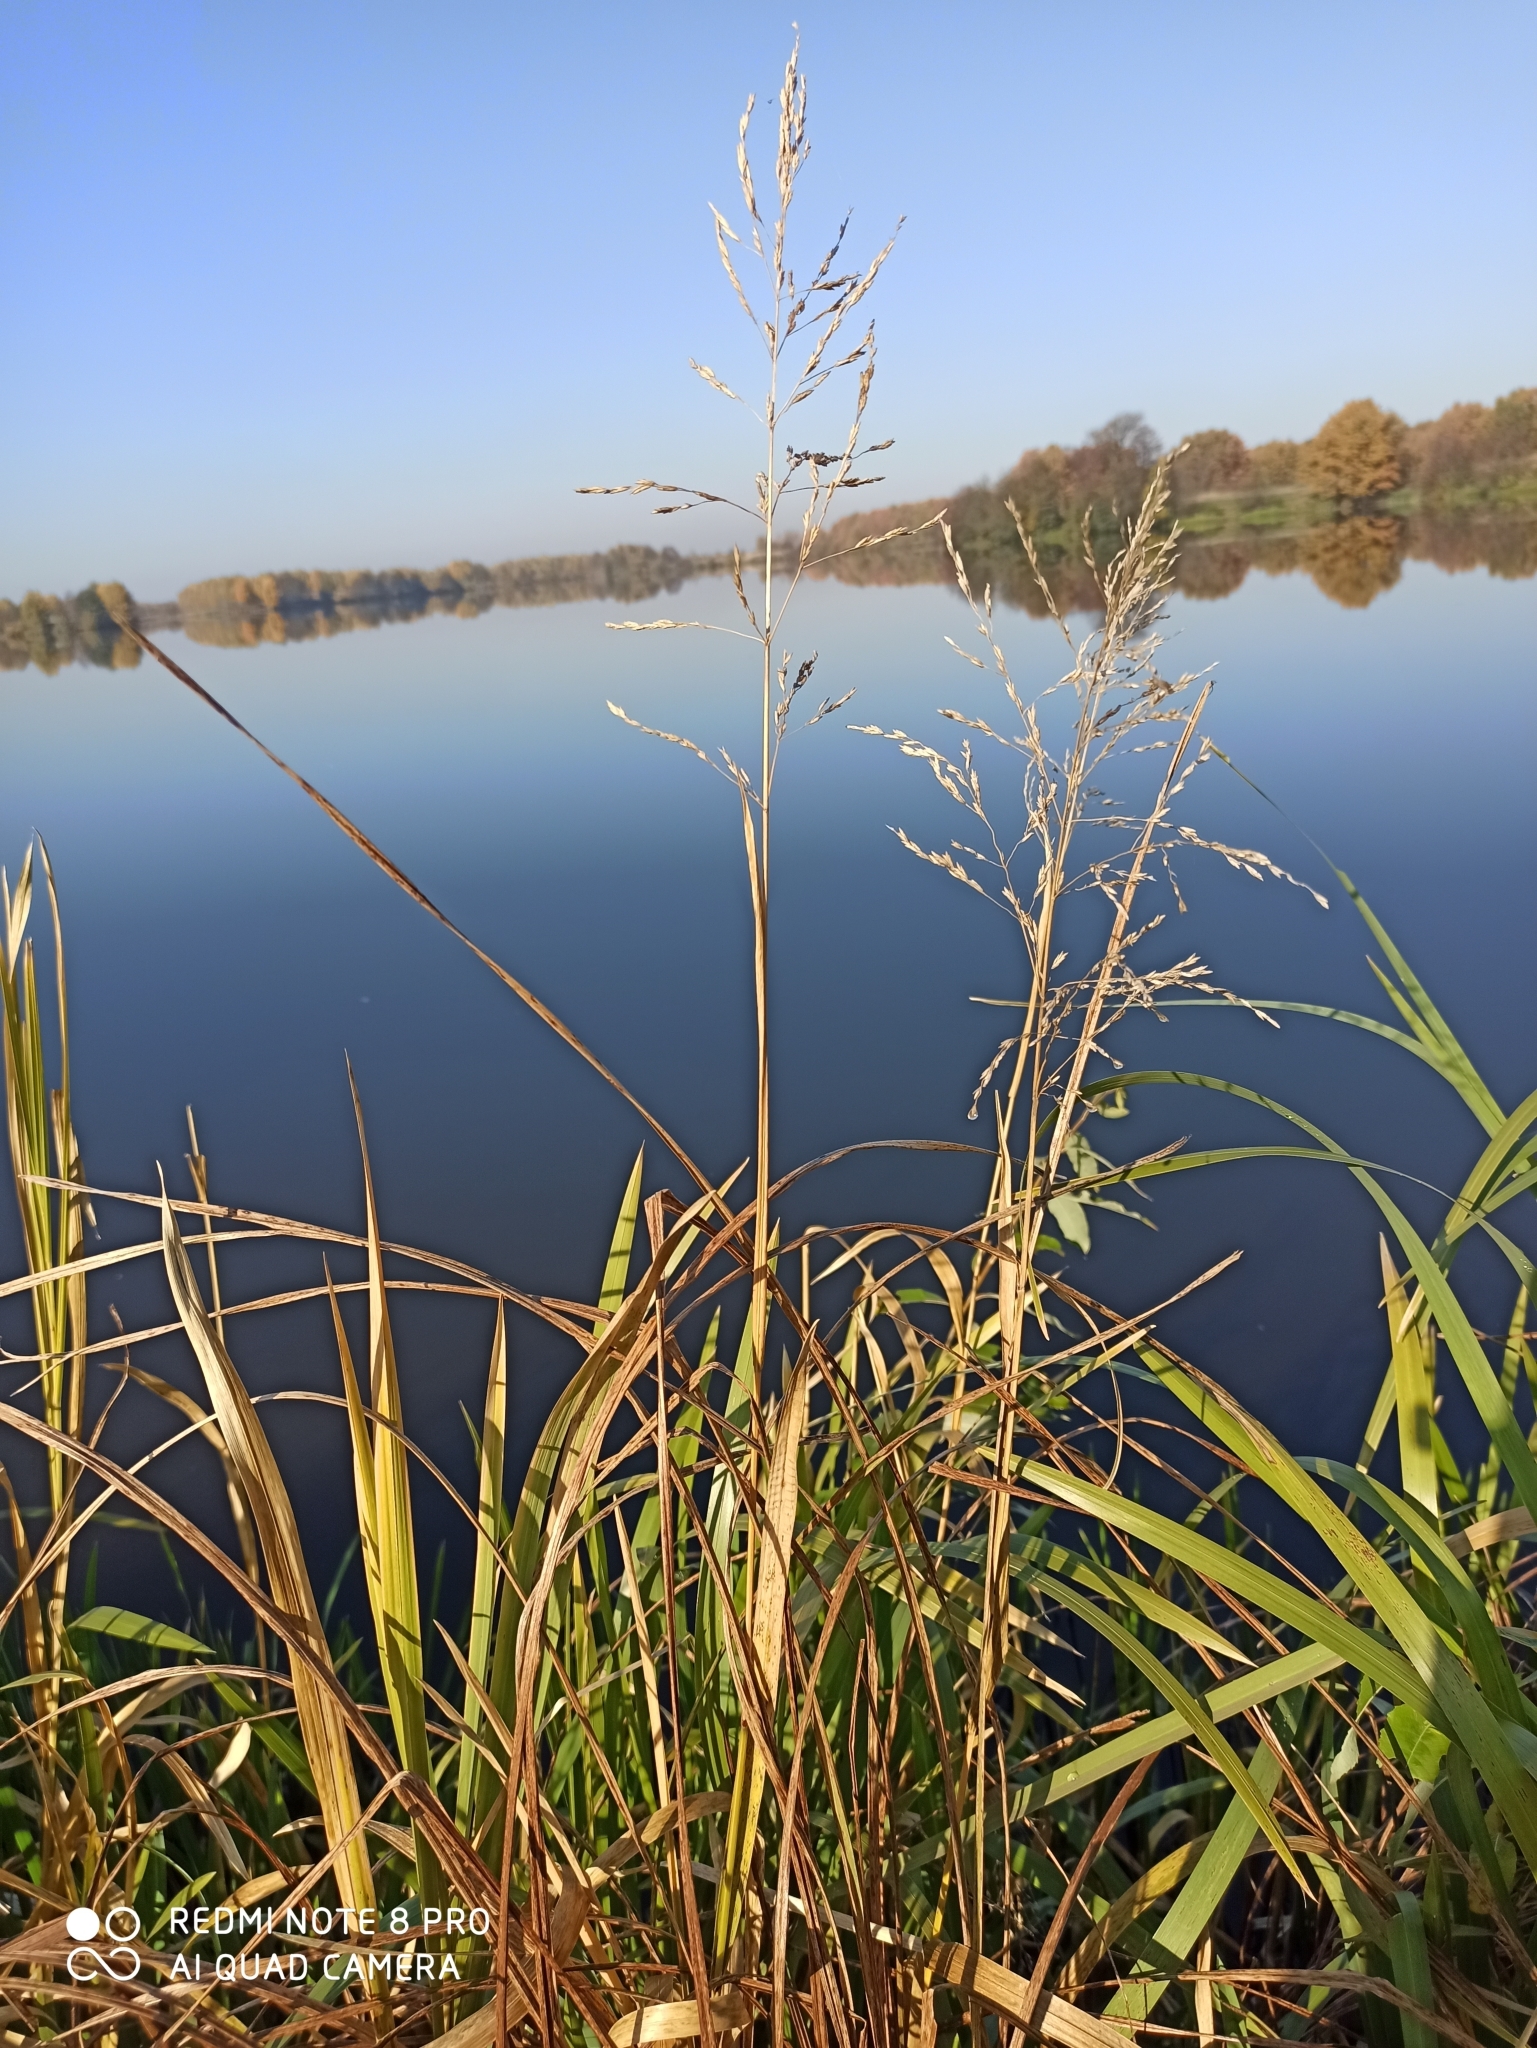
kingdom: Plantae
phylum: Tracheophyta
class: Liliopsida
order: Poales
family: Poaceae
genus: Glyceria
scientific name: Glyceria maxima
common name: Reed mannagrass
